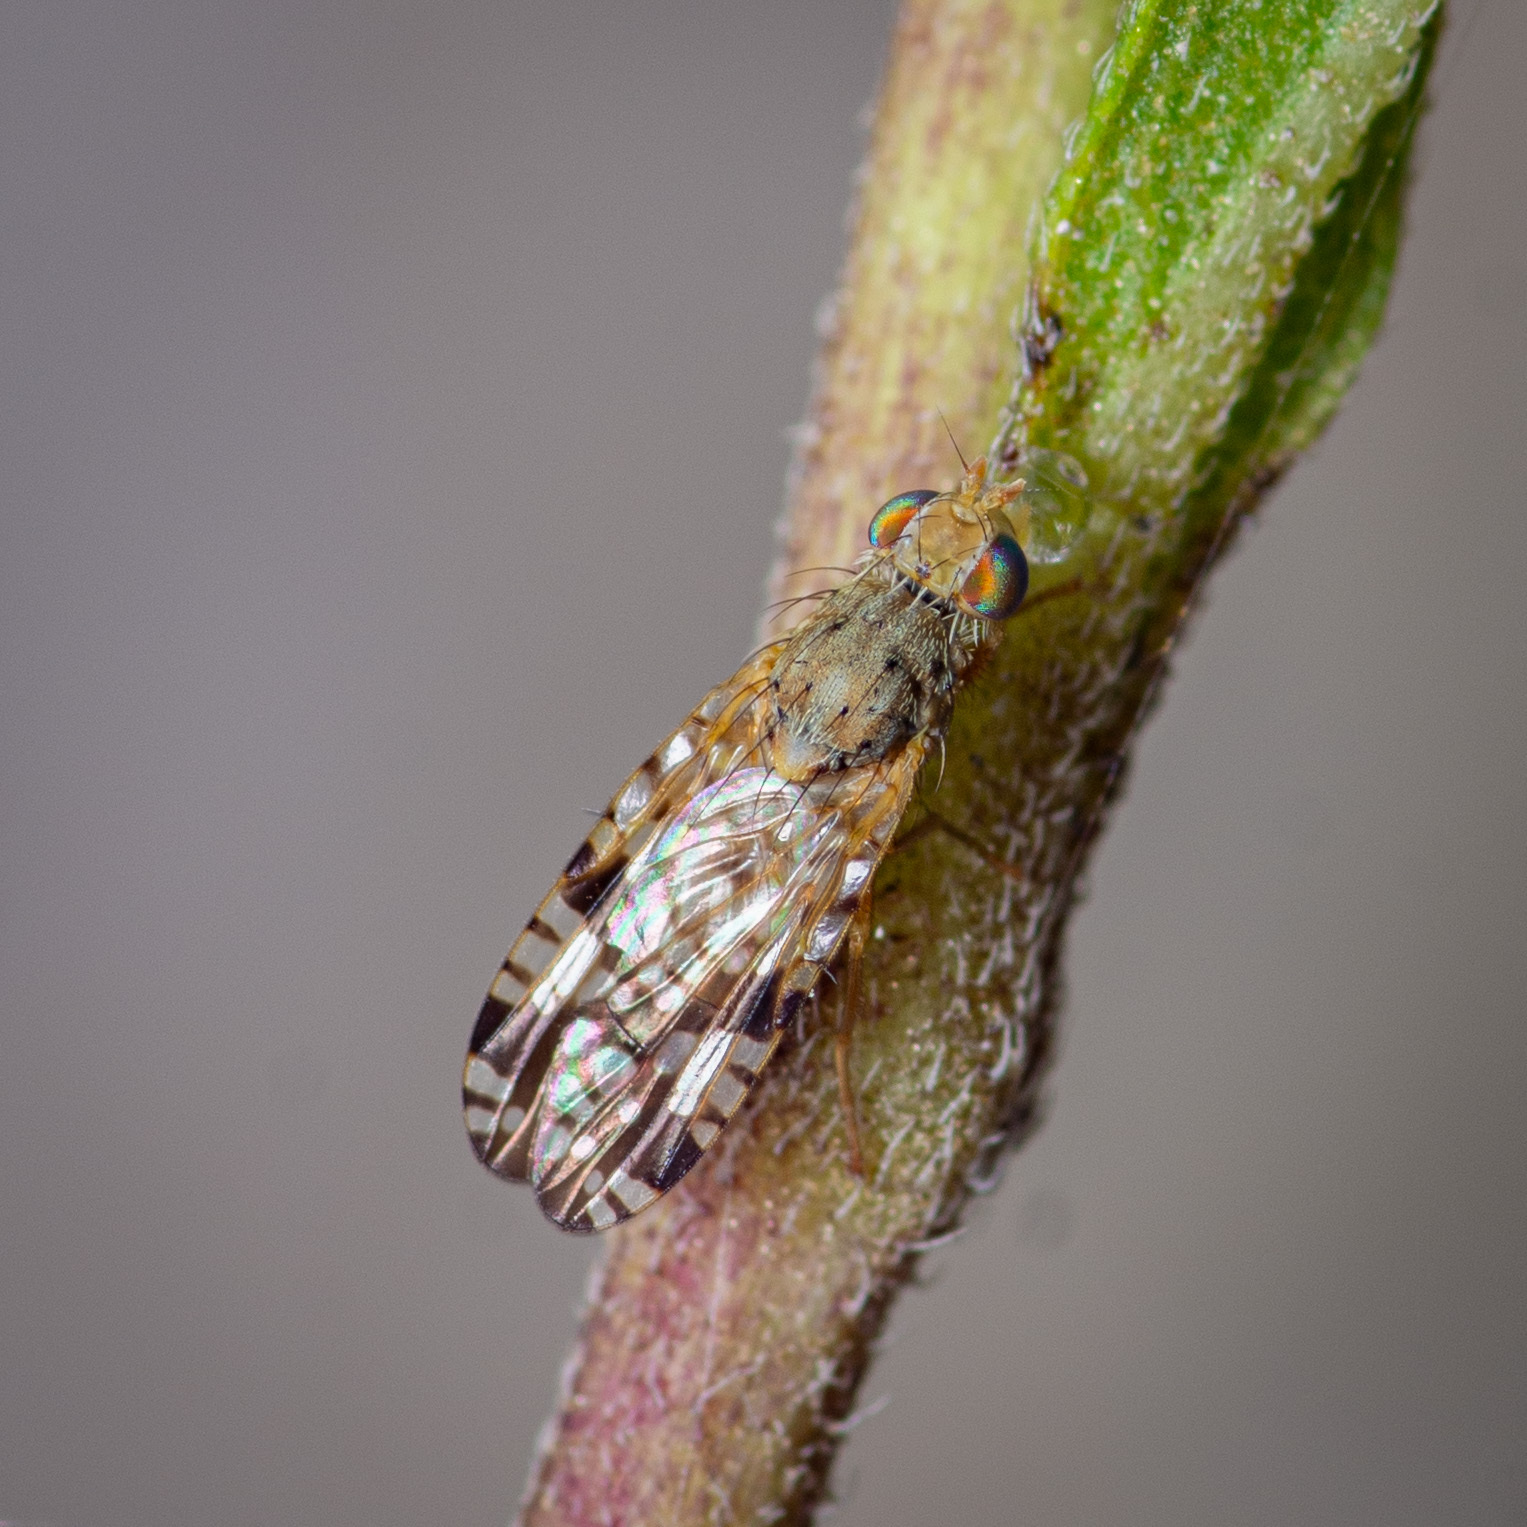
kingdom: Animalia
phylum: Arthropoda
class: Insecta
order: Diptera
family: Tephritidae
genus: Neotephritis
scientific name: Neotephritis finalis
